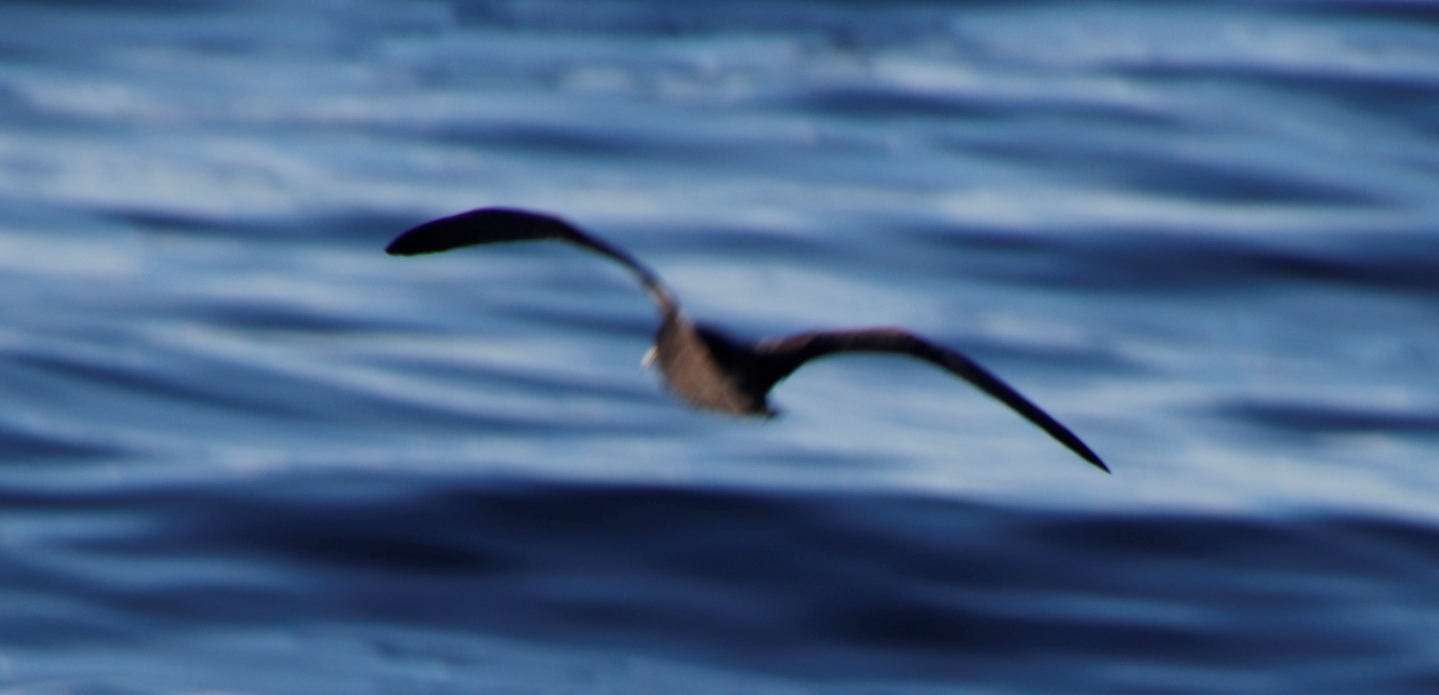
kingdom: Animalia
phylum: Chordata
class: Aves
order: Procellariiformes
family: Procellariidae
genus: Procellaria
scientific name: Procellaria aequinoctialis
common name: White-chinned petrel
